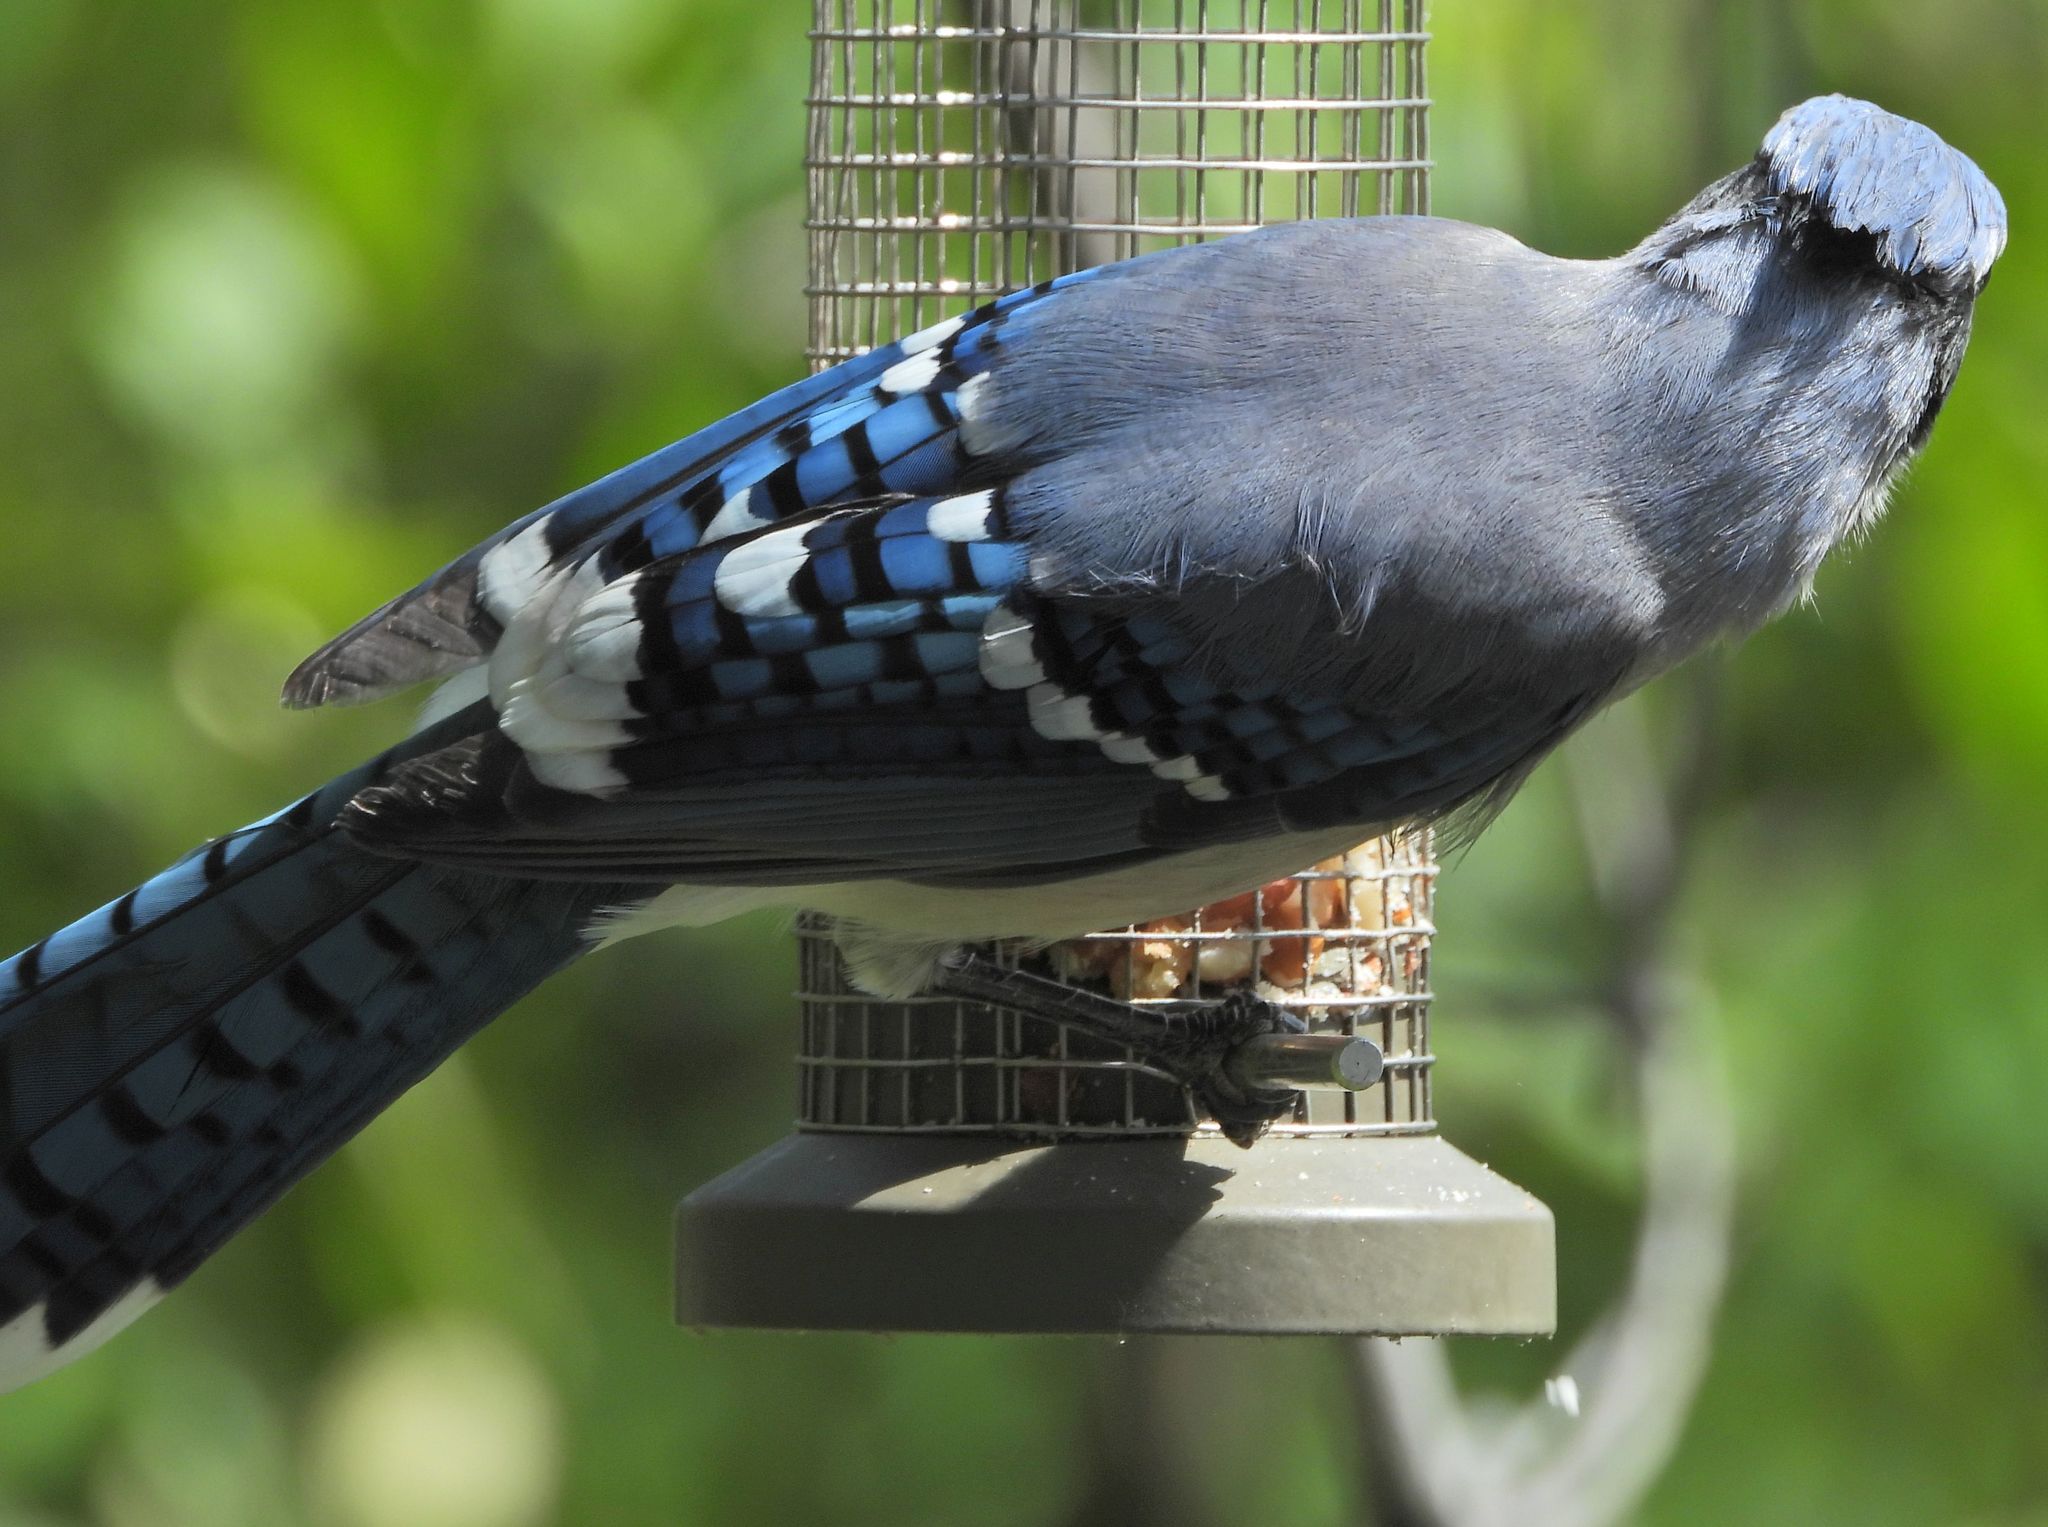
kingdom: Animalia
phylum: Chordata
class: Aves
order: Passeriformes
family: Corvidae
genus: Cyanocitta
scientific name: Cyanocitta cristata
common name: Blue jay
